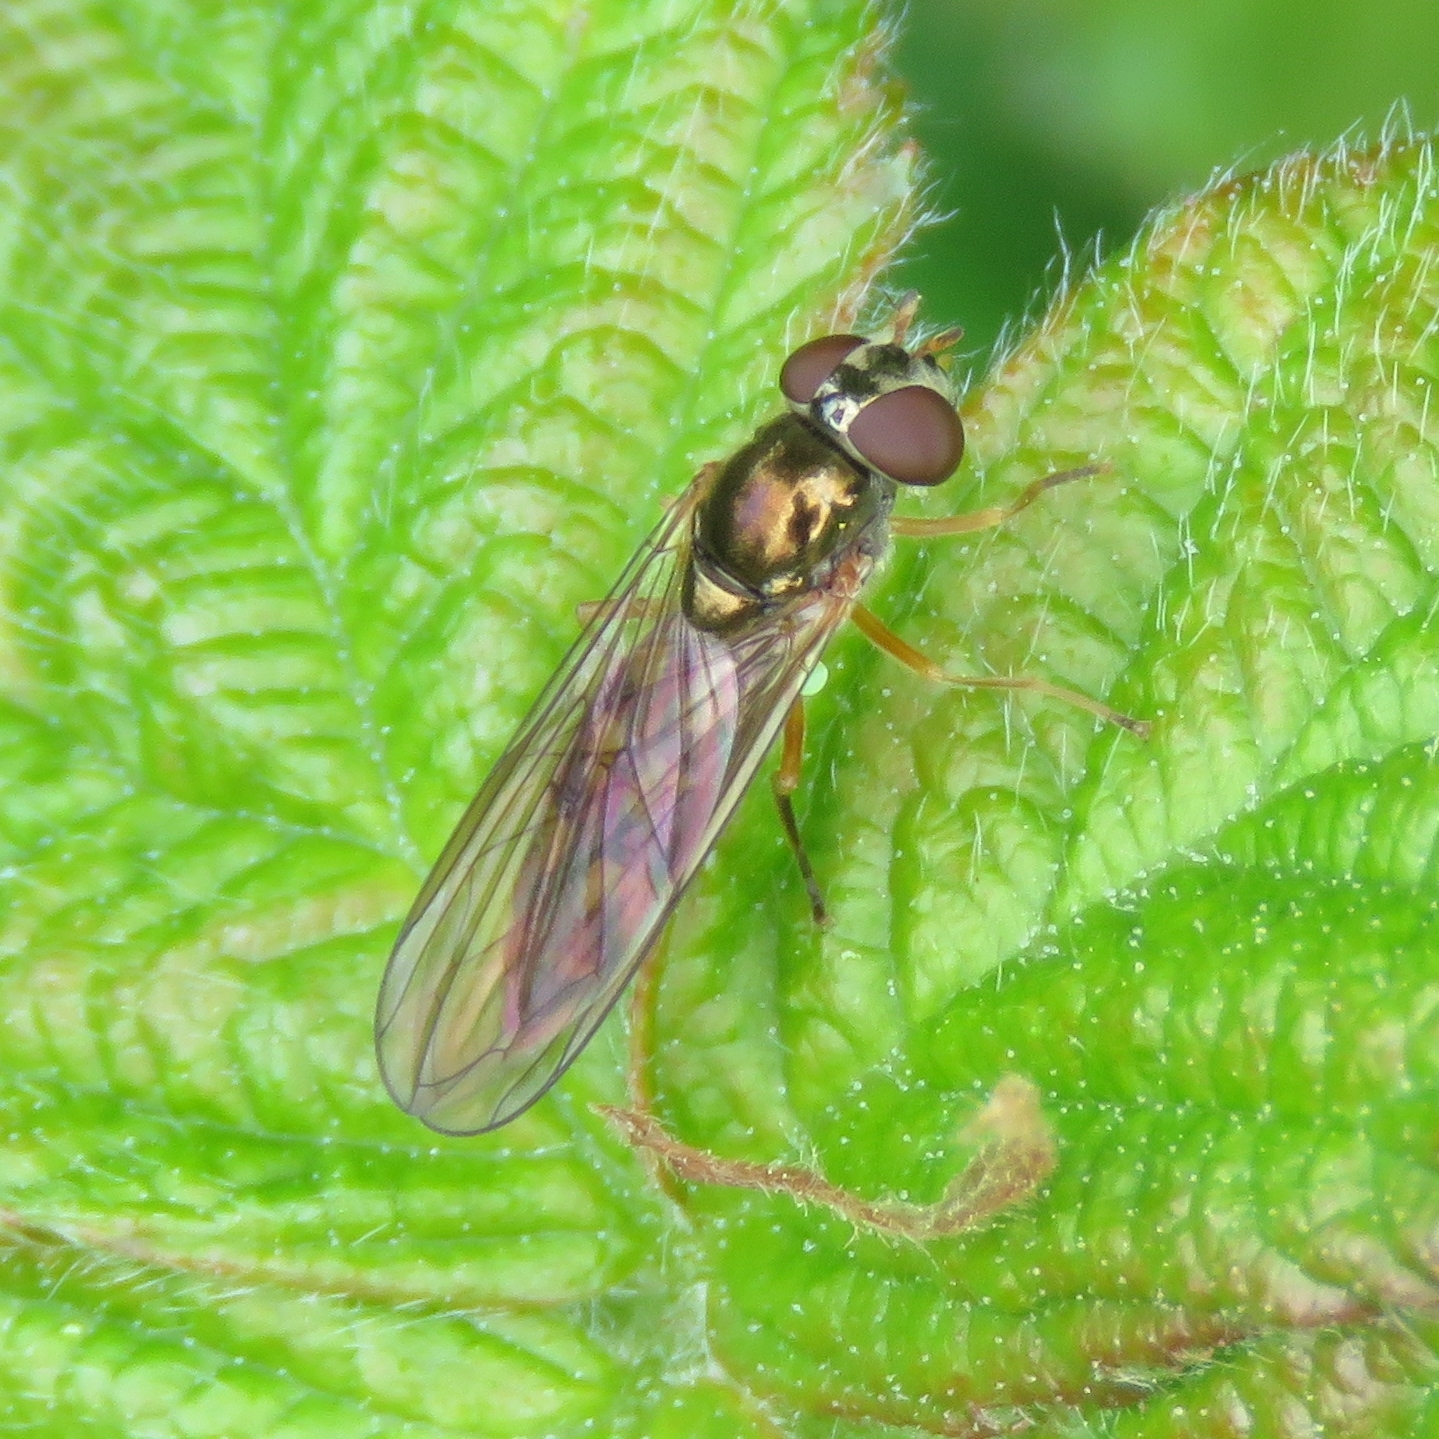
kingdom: Animalia
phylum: Arthropoda
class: Insecta
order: Diptera
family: Syrphidae
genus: Melanostoma
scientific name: Melanostoma scalare
